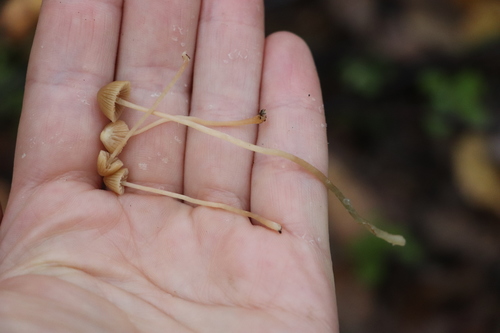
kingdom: Fungi
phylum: Basidiomycota
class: Agaricomycetes
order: Agaricales
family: Hymenogastraceae
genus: Galerina
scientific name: Galerina
